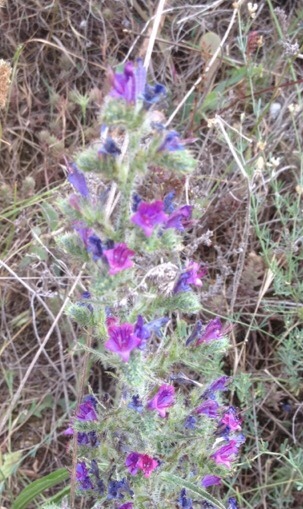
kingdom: Plantae
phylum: Tracheophyta
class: Magnoliopsida
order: Boraginales
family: Boraginaceae
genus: Echium
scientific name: Echium vulgare
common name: Common viper's bugloss
